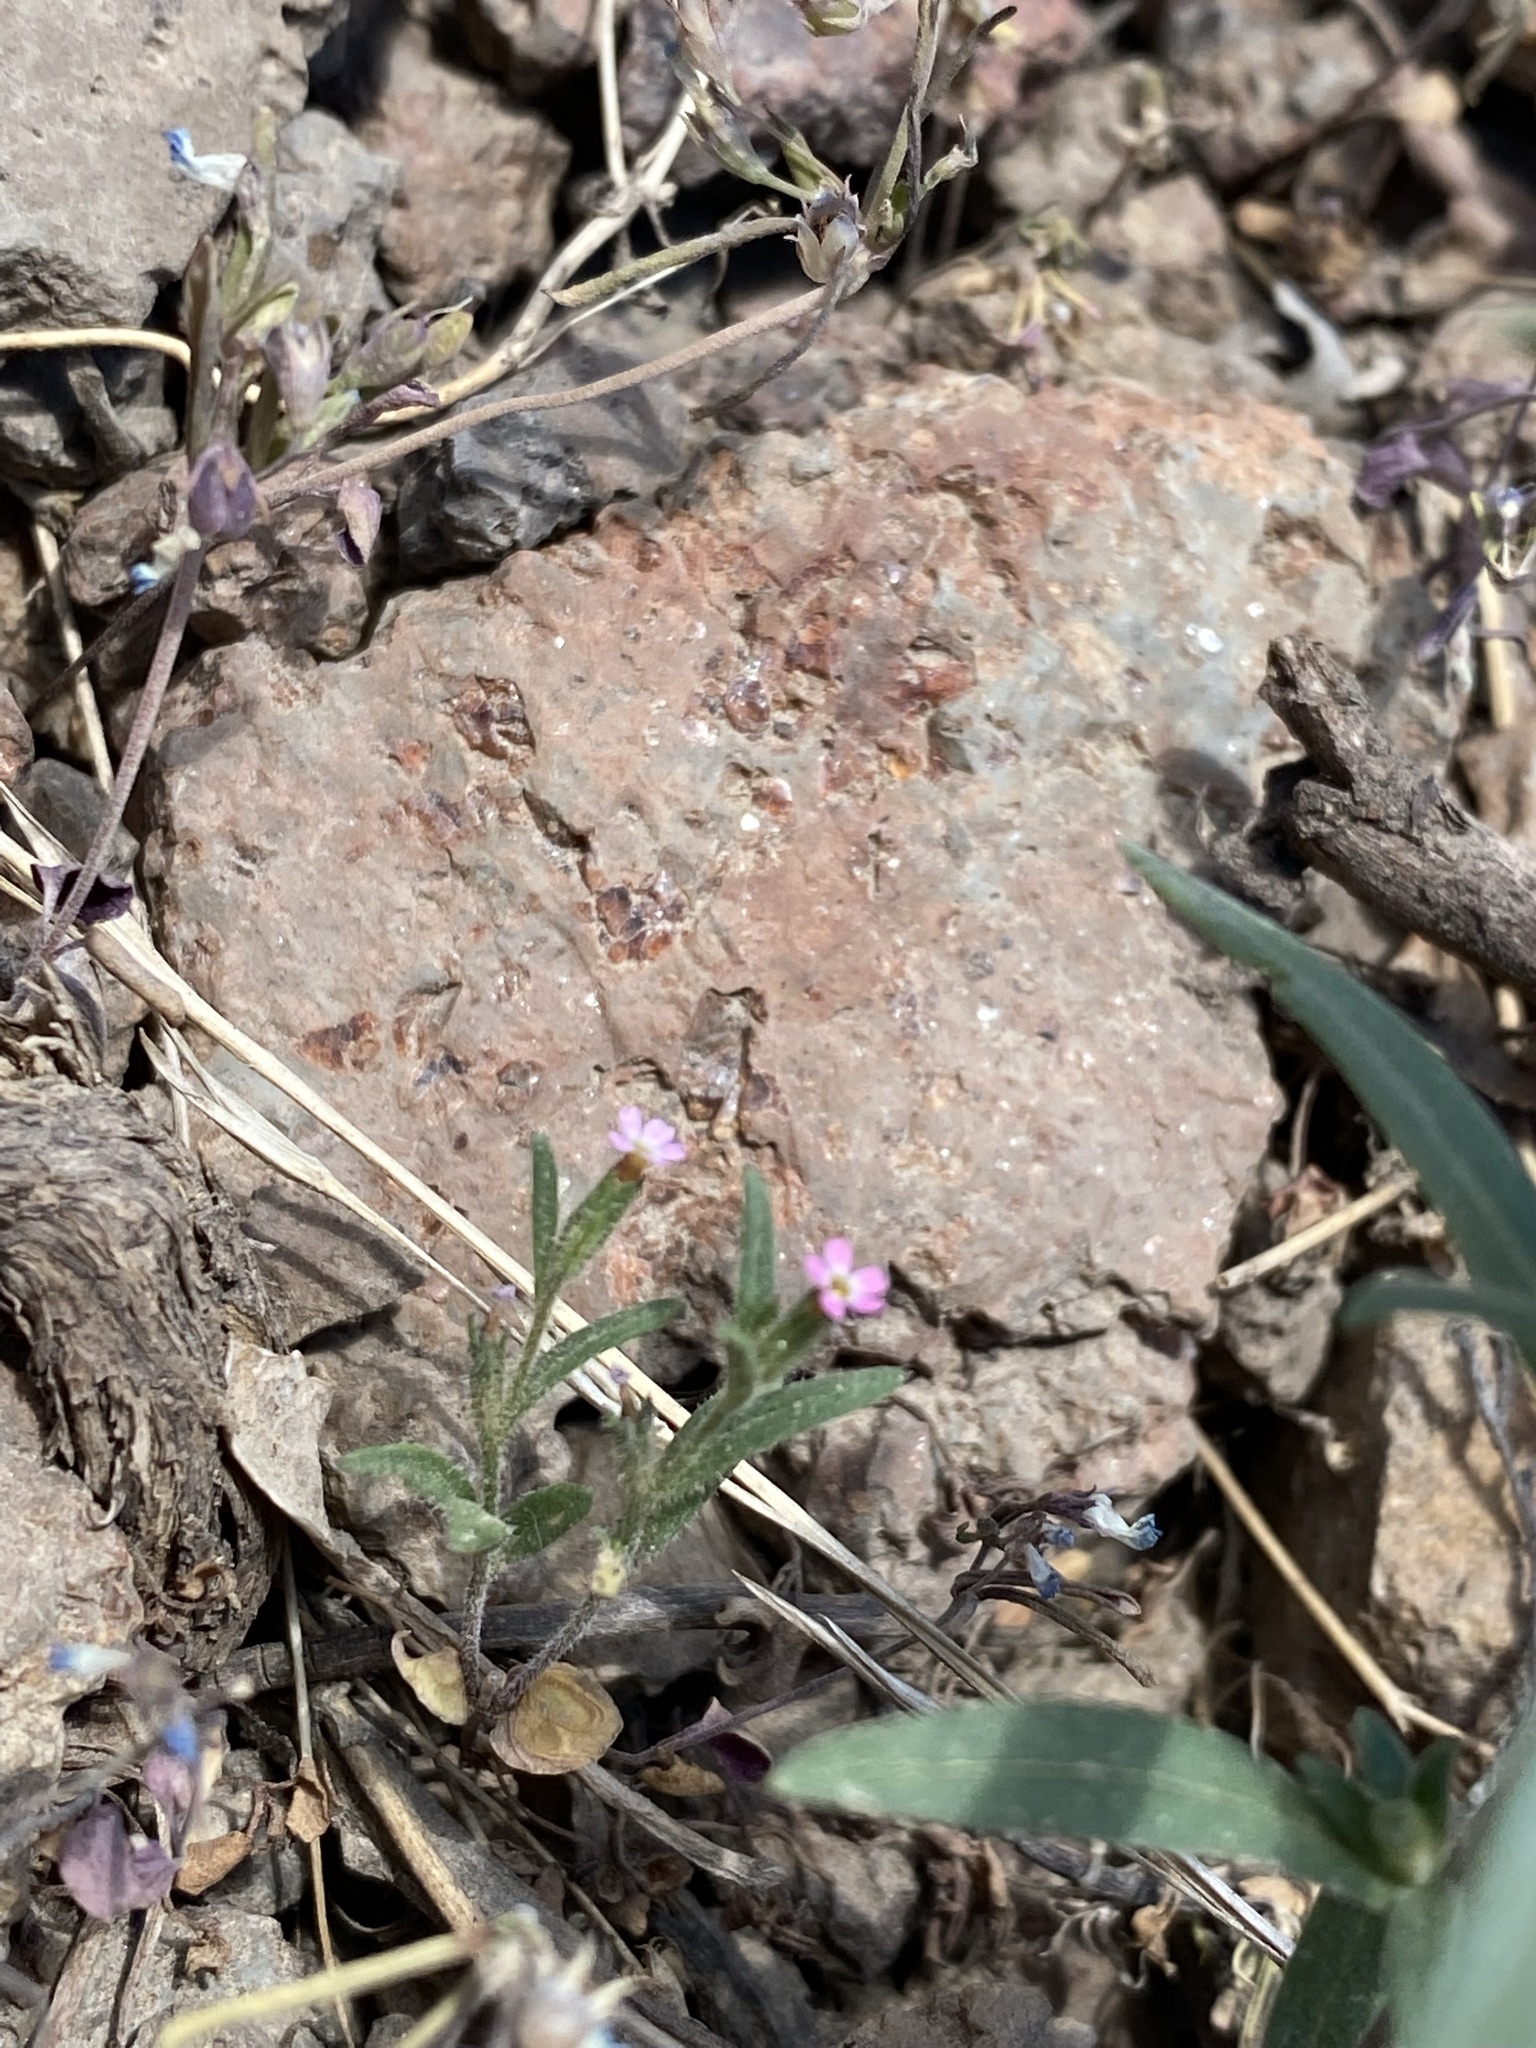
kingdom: Plantae
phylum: Tracheophyta
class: Magnoliopsida
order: Ericales
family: Polemoniaceae
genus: Collomia
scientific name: Collomia linearis
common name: Tiny trumpet
